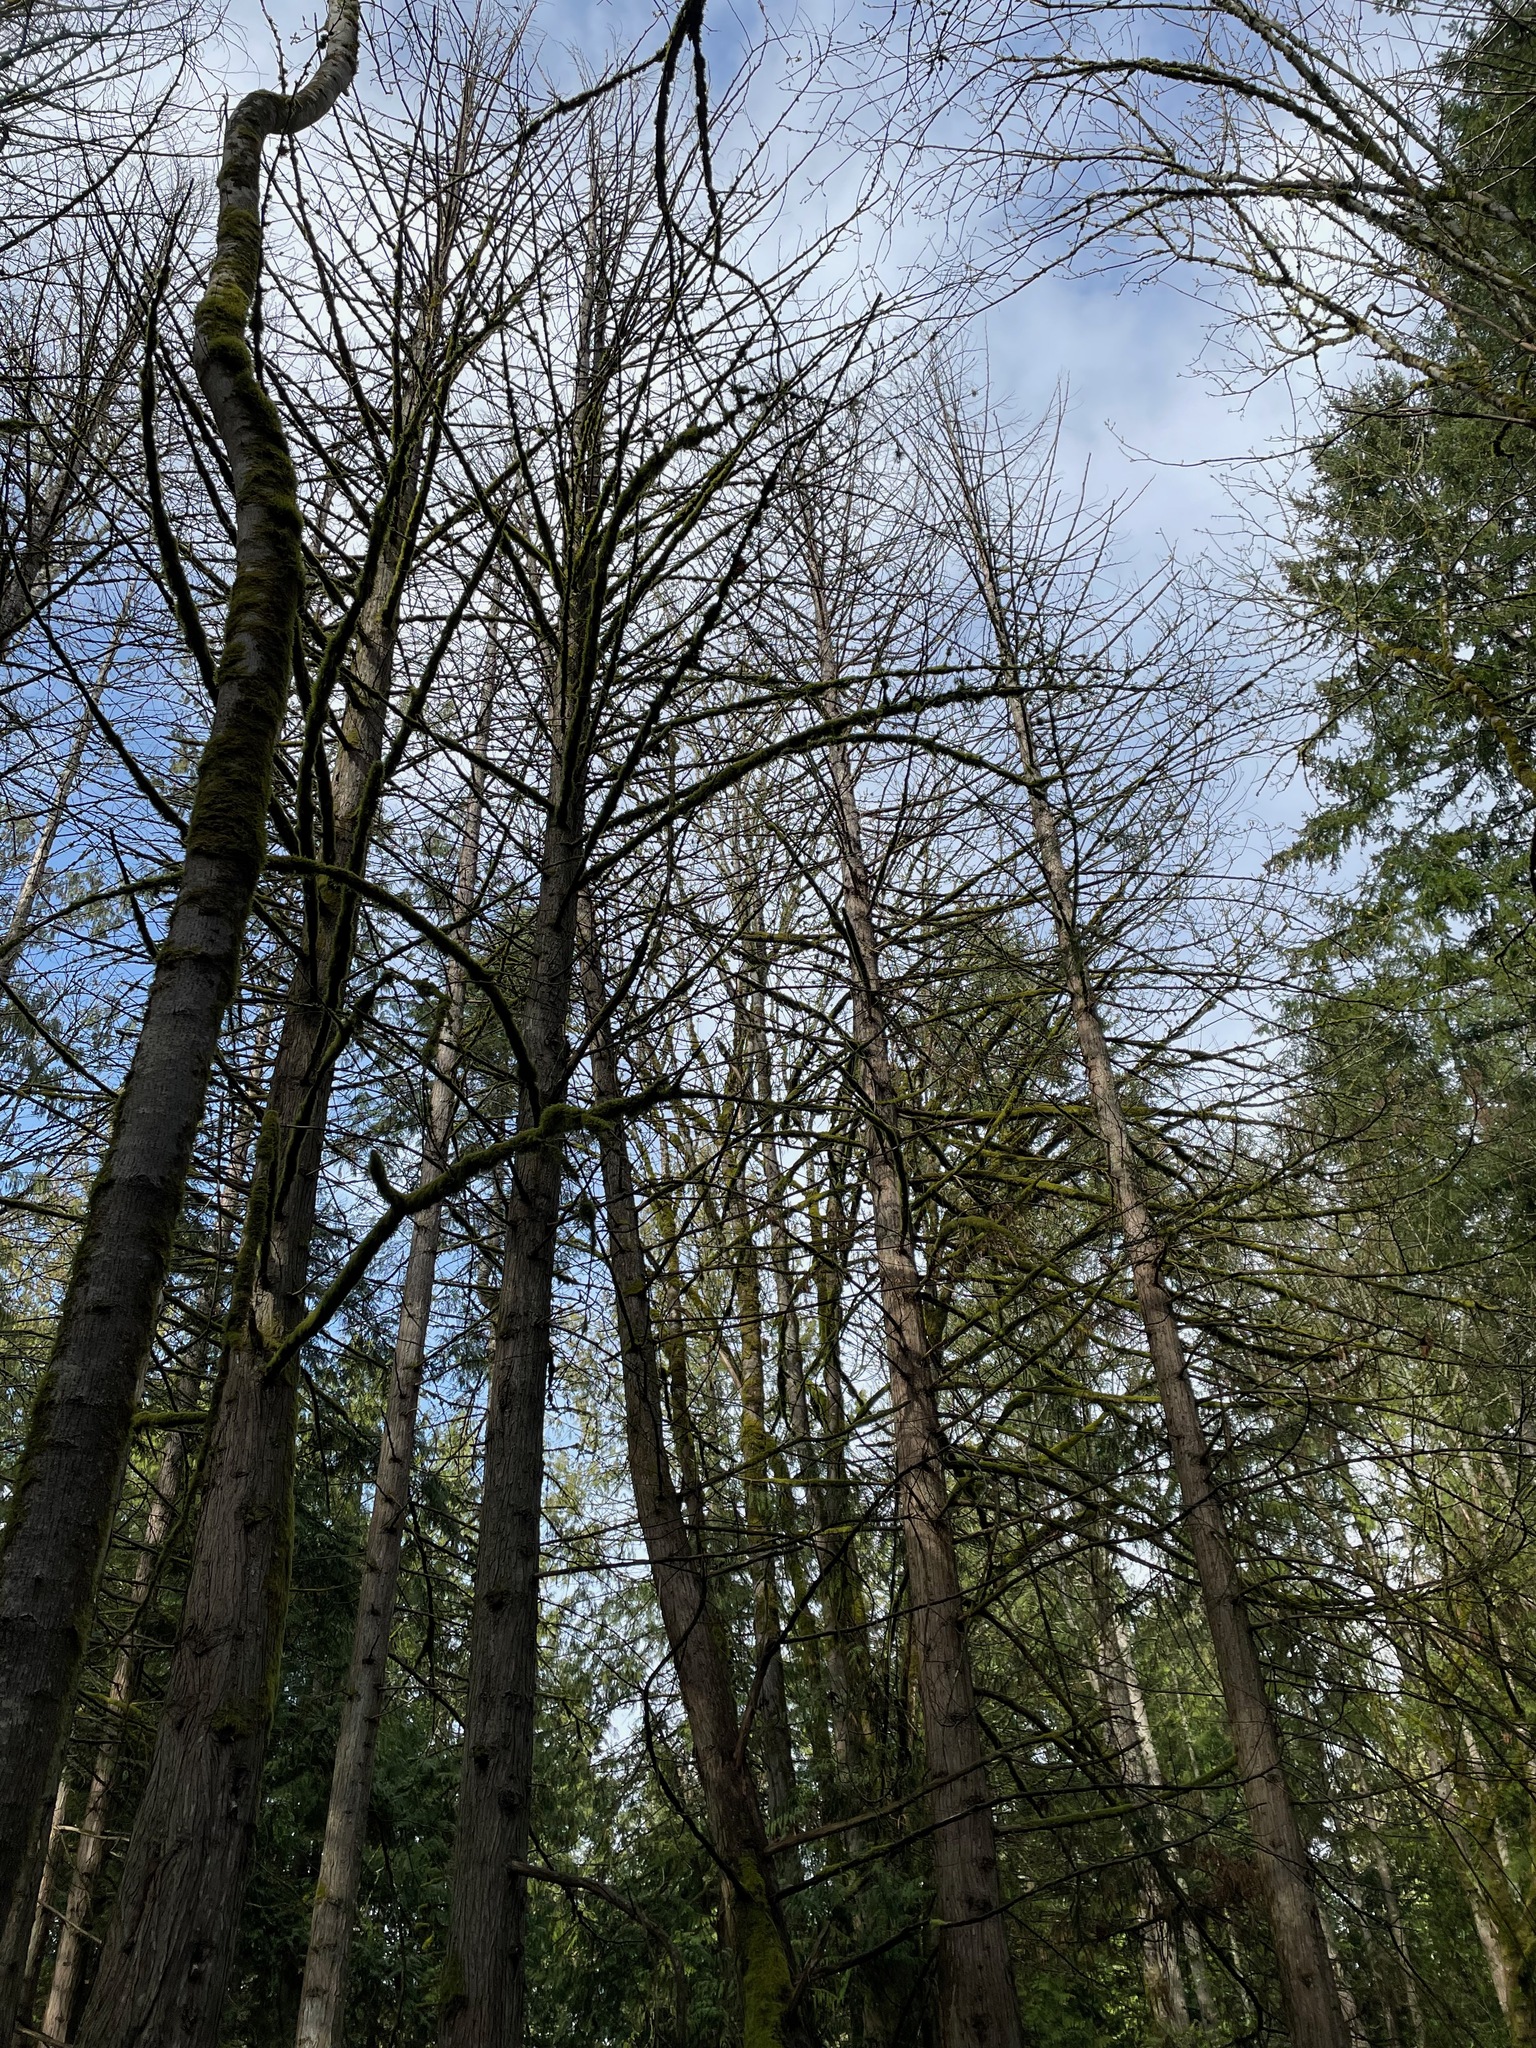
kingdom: Plantae
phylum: Tracheophyta
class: Pinopsida
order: Pinales
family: Cupressaceae
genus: Thuja
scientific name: Thuja plicata
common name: Western red-cedar
